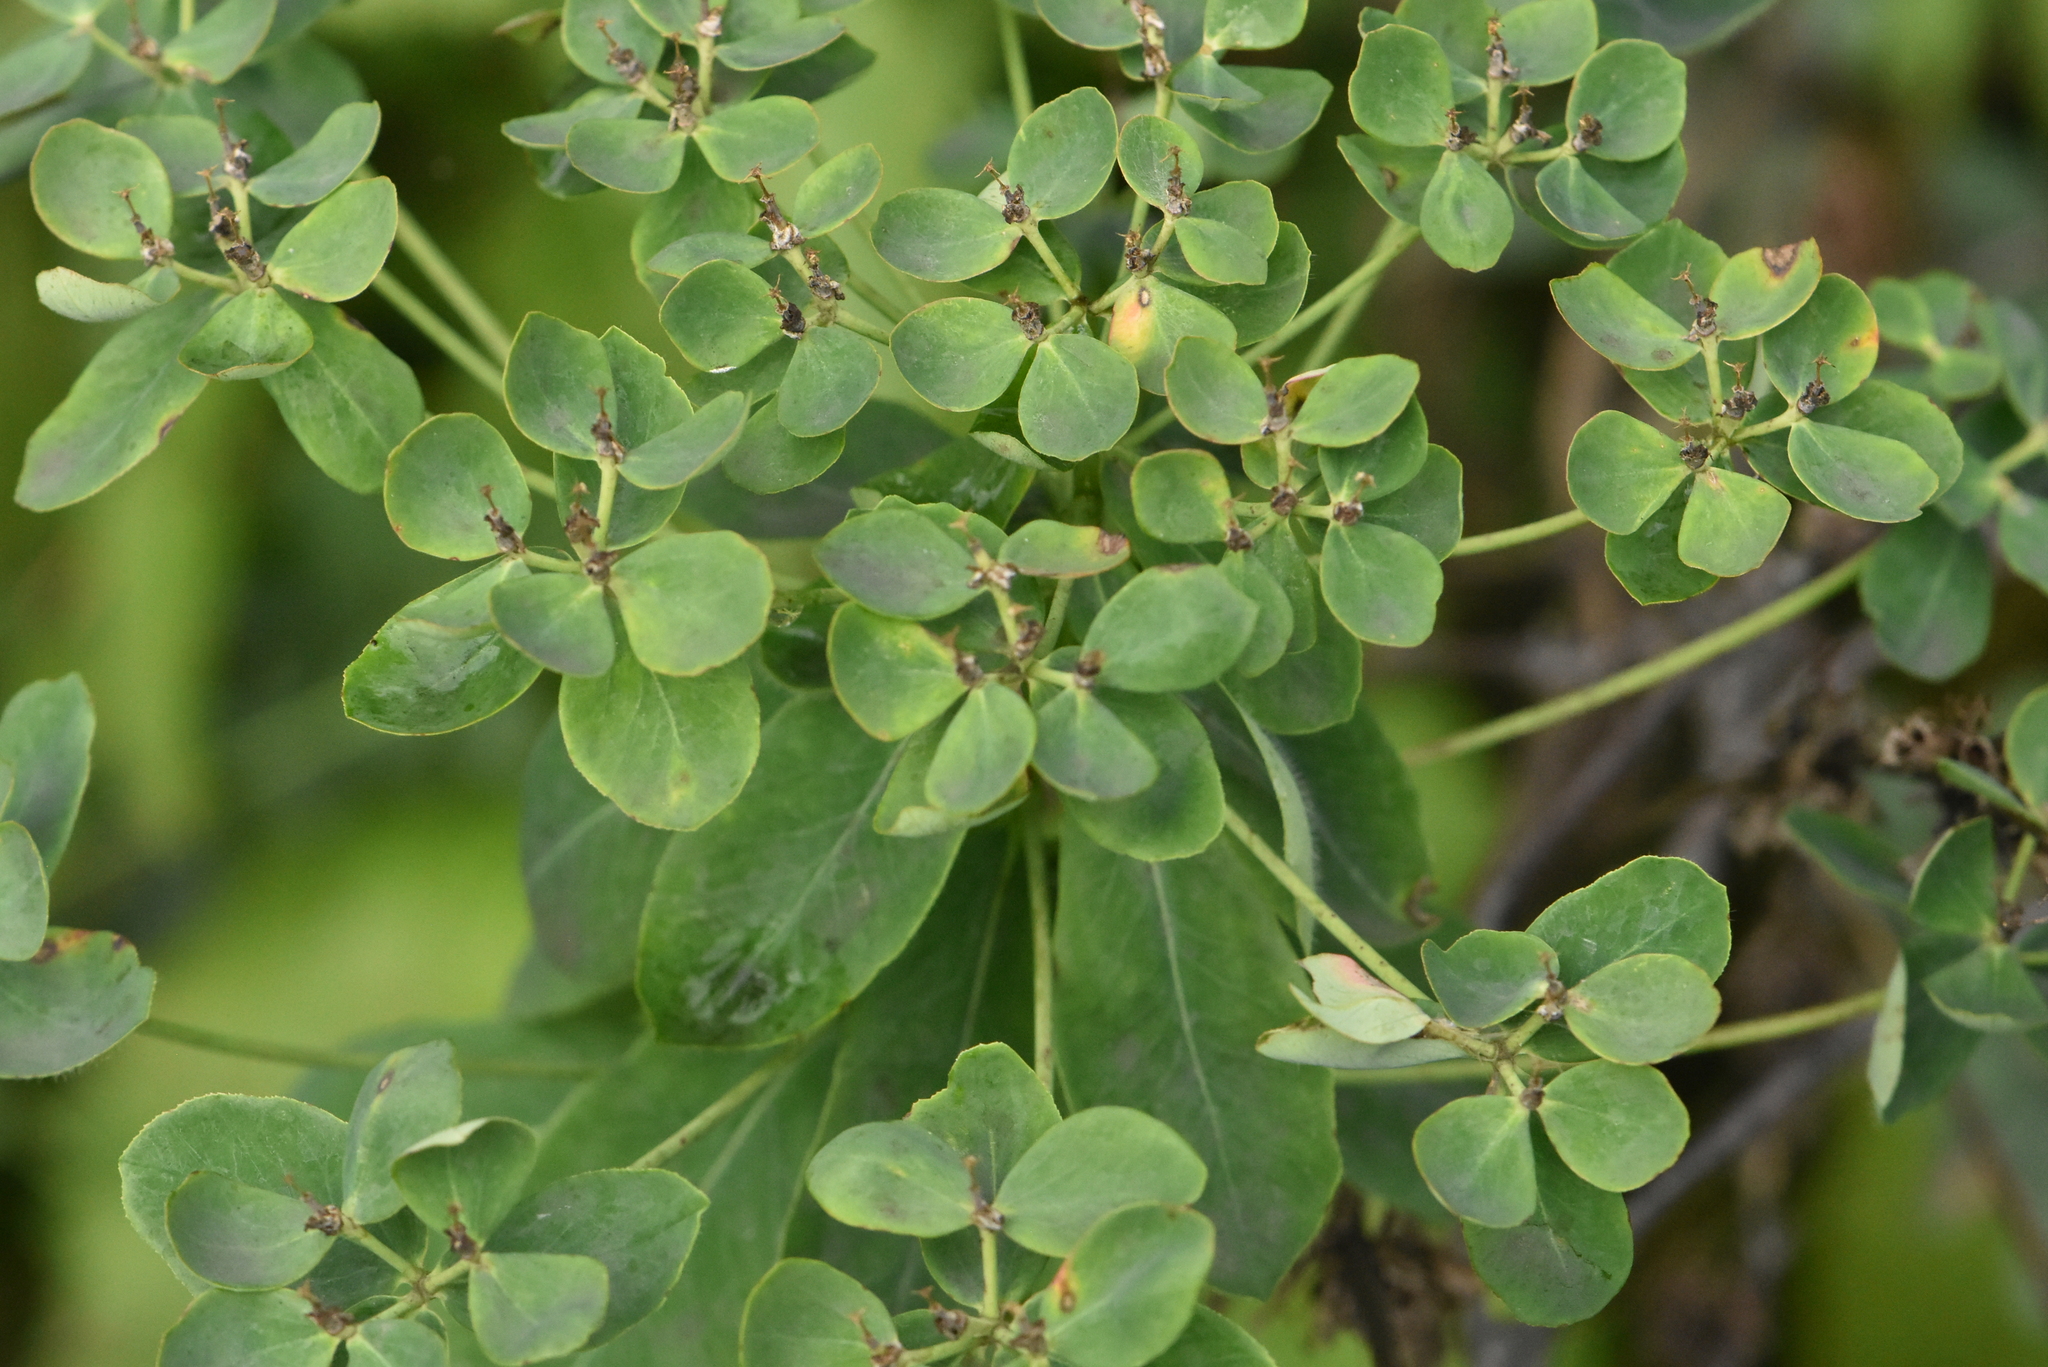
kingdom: Plantae
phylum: Tracheophyta
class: Magnoliopsida
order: Malpighiales
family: Euphorbiaceae
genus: Euphorbia
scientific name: Euphorbia pilosa
